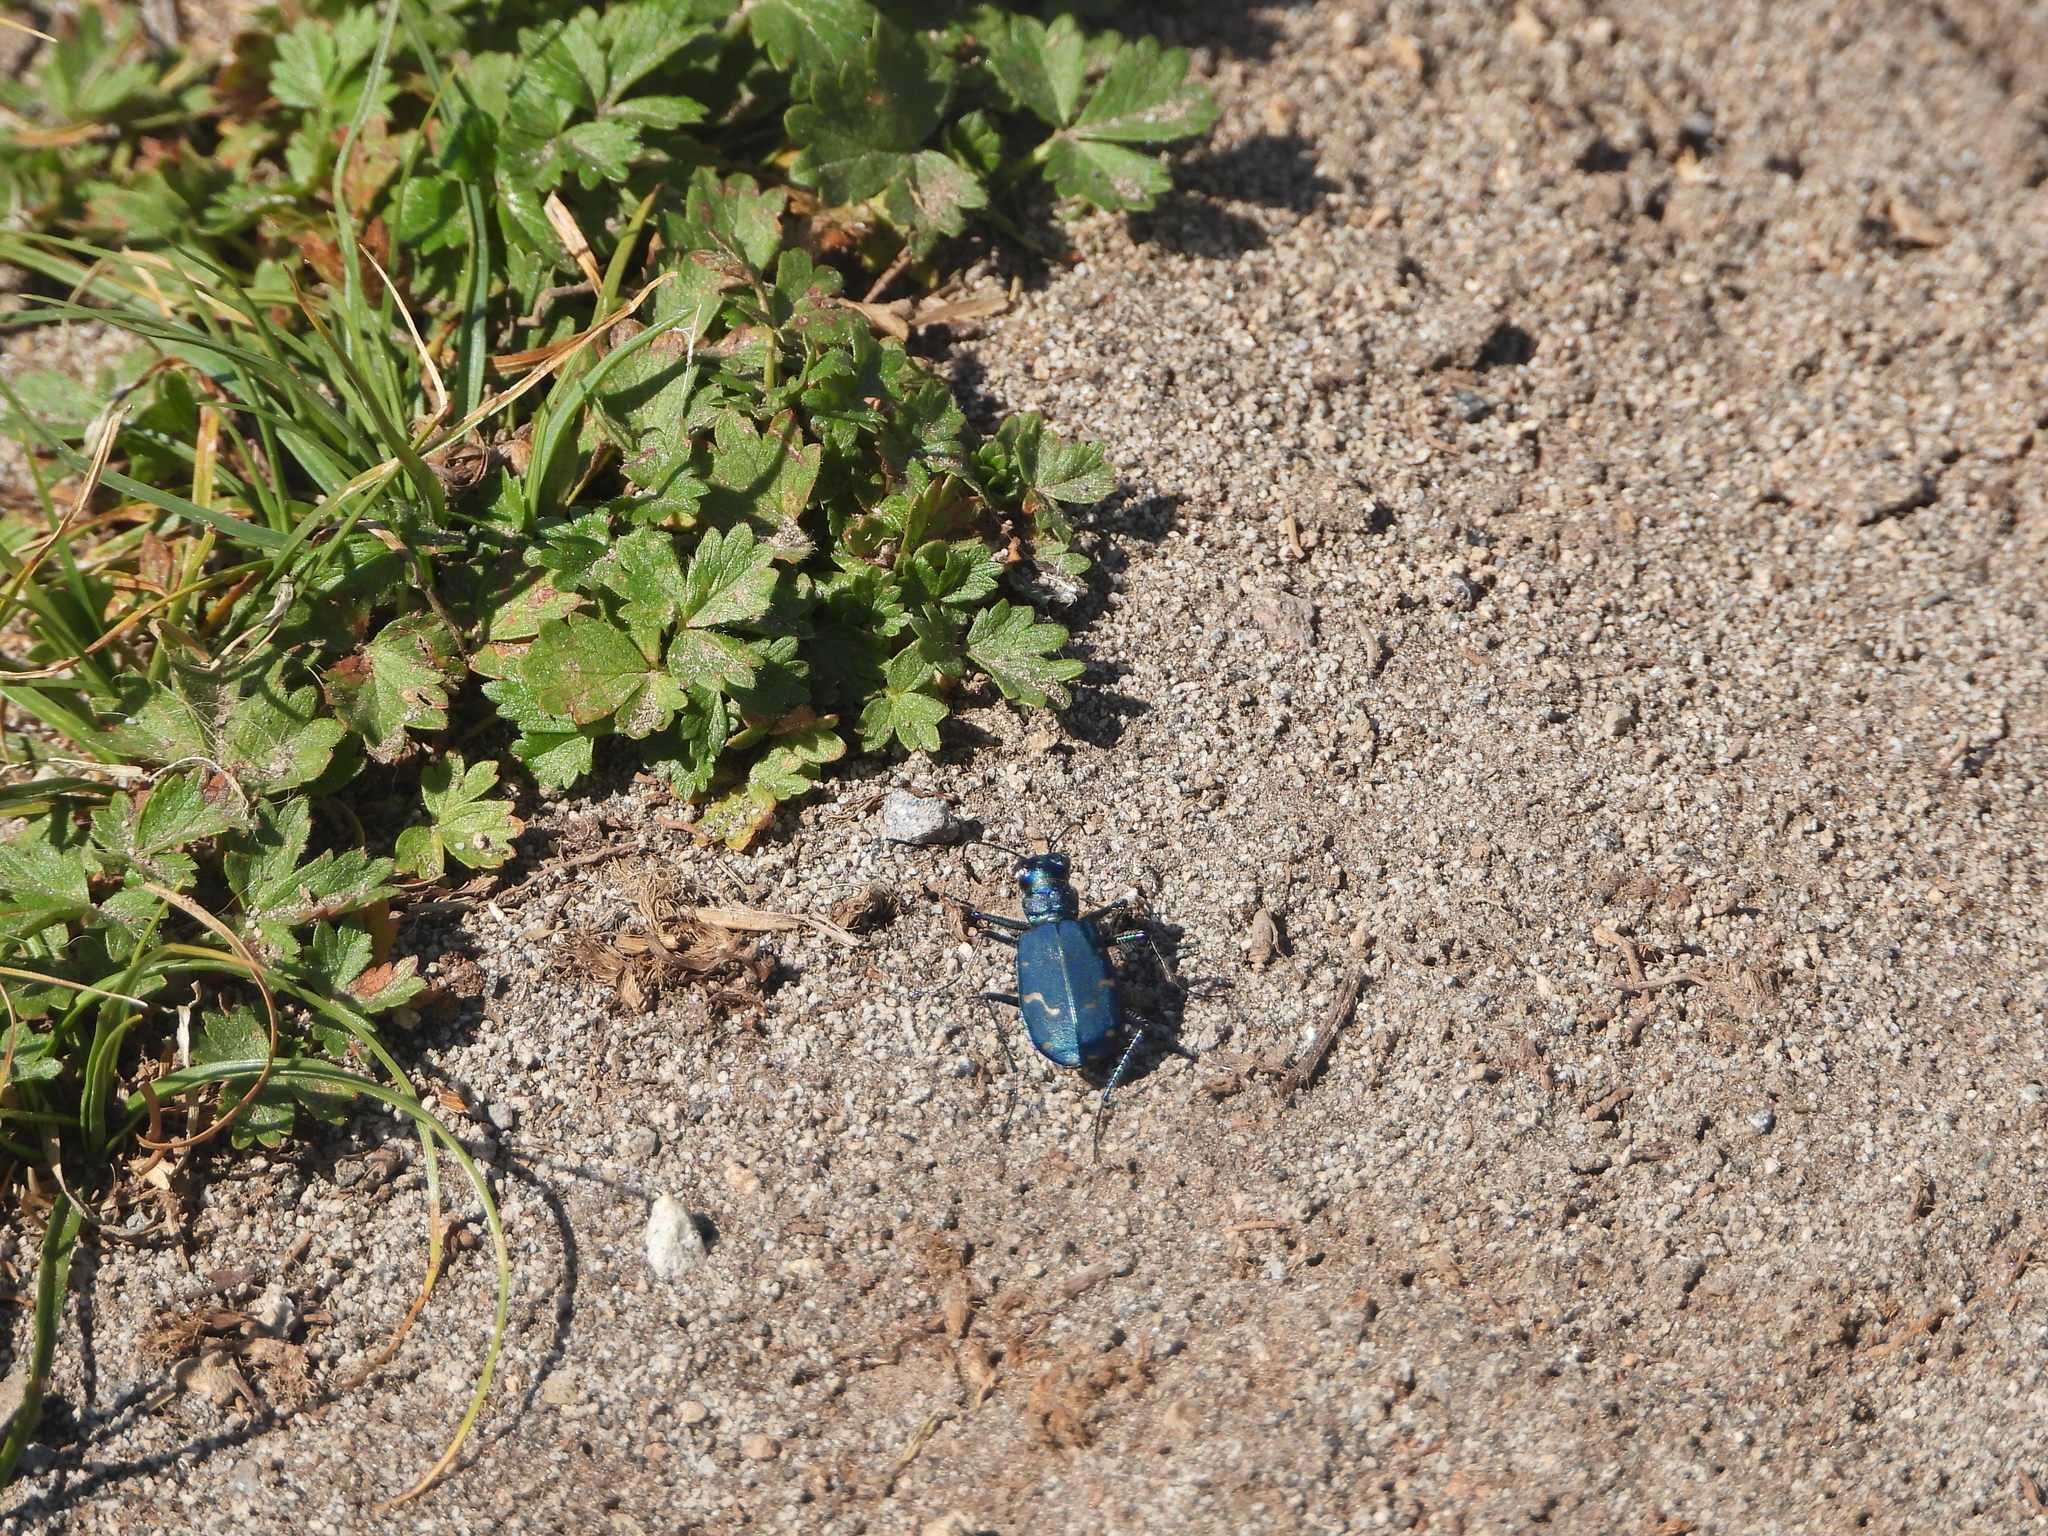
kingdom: Animalia
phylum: Arthropoda
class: Insecta
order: Coleoptera
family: Carabidae
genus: Cicindela
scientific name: Cicindela depressula
